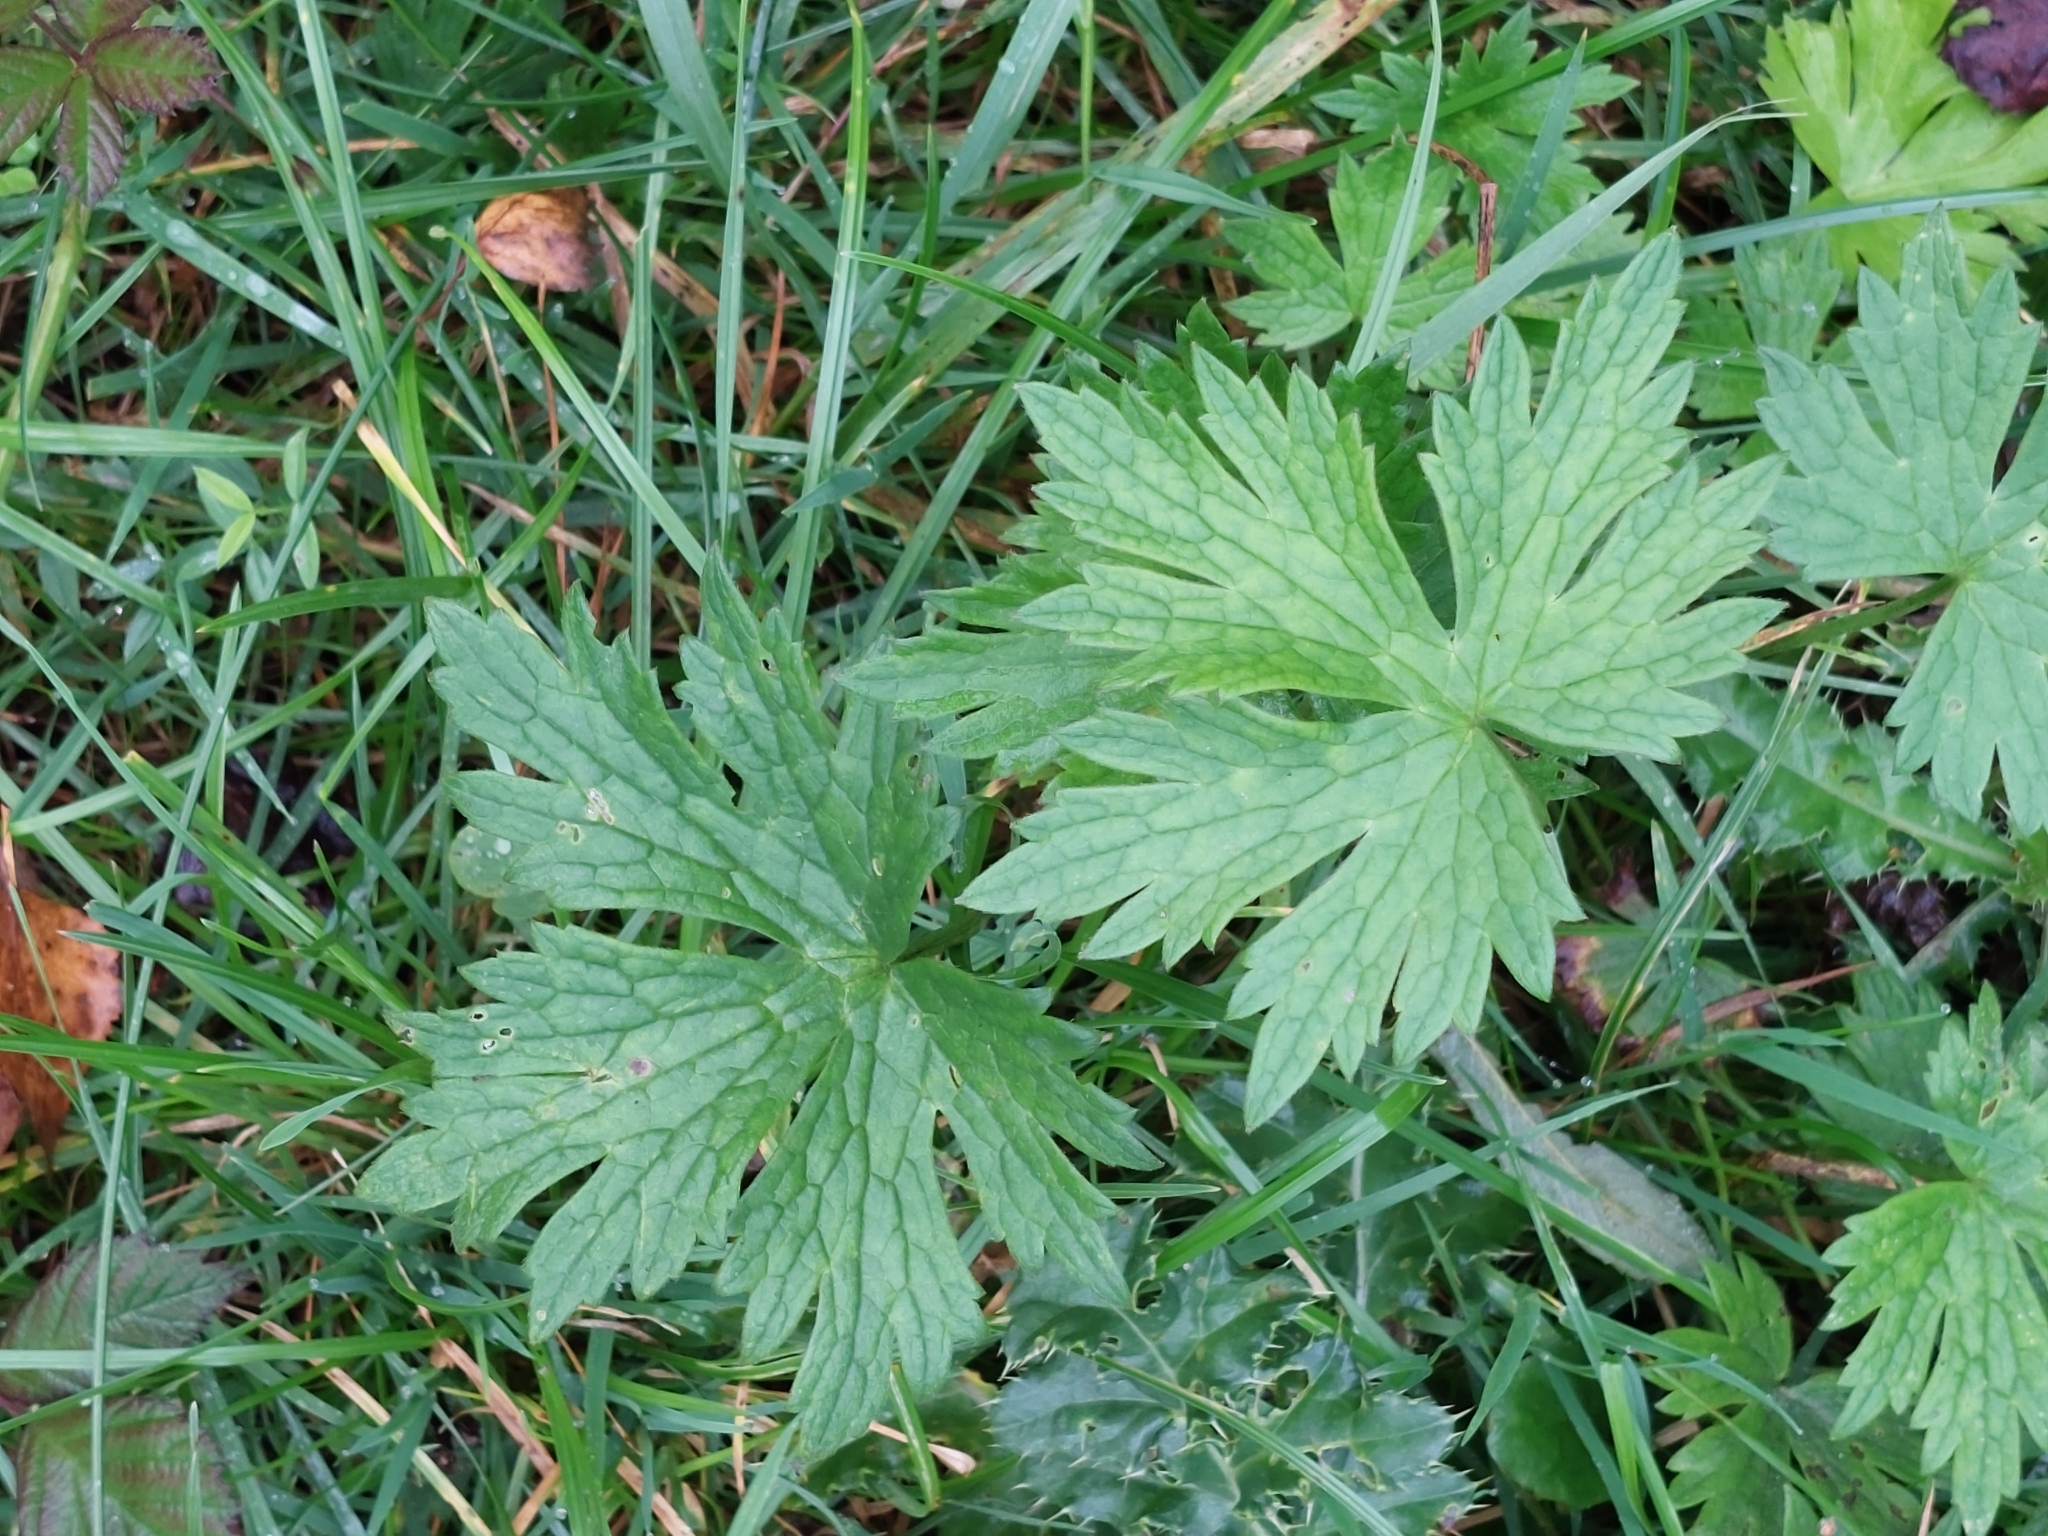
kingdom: Plantae
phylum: Tracheophyta
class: Magnoliopsida
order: Ranunculales
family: Ranunculaceae
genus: Ranunculus
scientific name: Ranunculus acris
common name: Meadow buttercup
